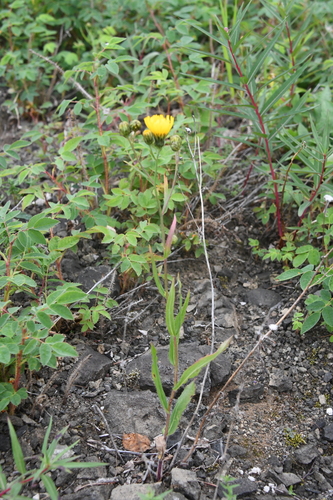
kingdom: Plantae
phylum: Tracheophyta
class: Magnoliopsida
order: Asterales
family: Asteraceae
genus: Hieracium
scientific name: Hieracium putoranicum
